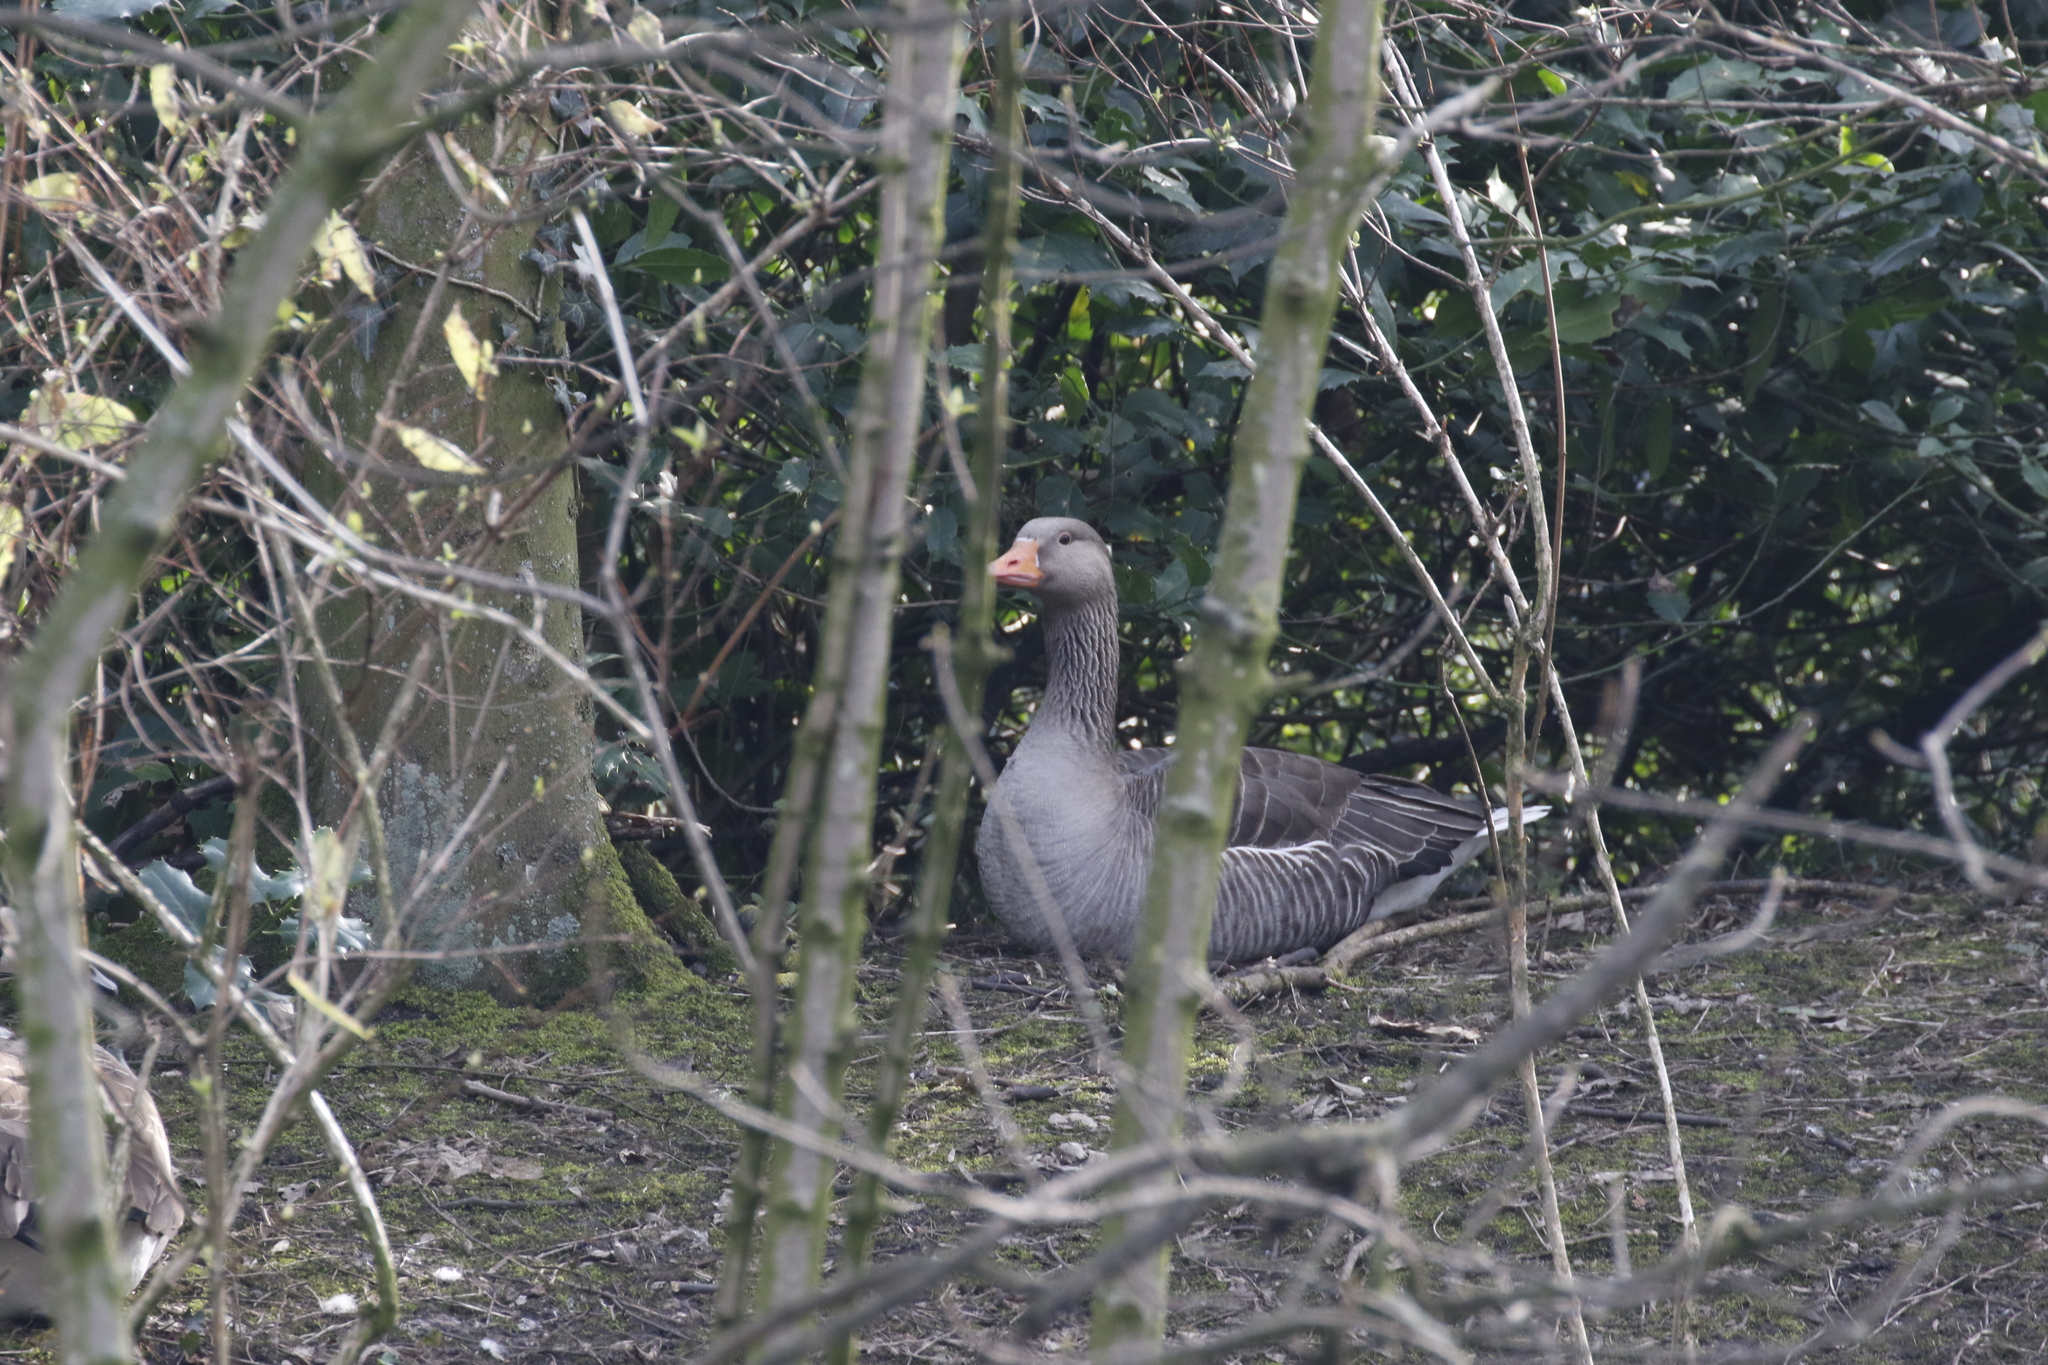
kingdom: Animalia
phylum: Chordata
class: Aves
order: Anseriformes
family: Anatidae
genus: Anser
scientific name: Anser anser
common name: Greylag goose
